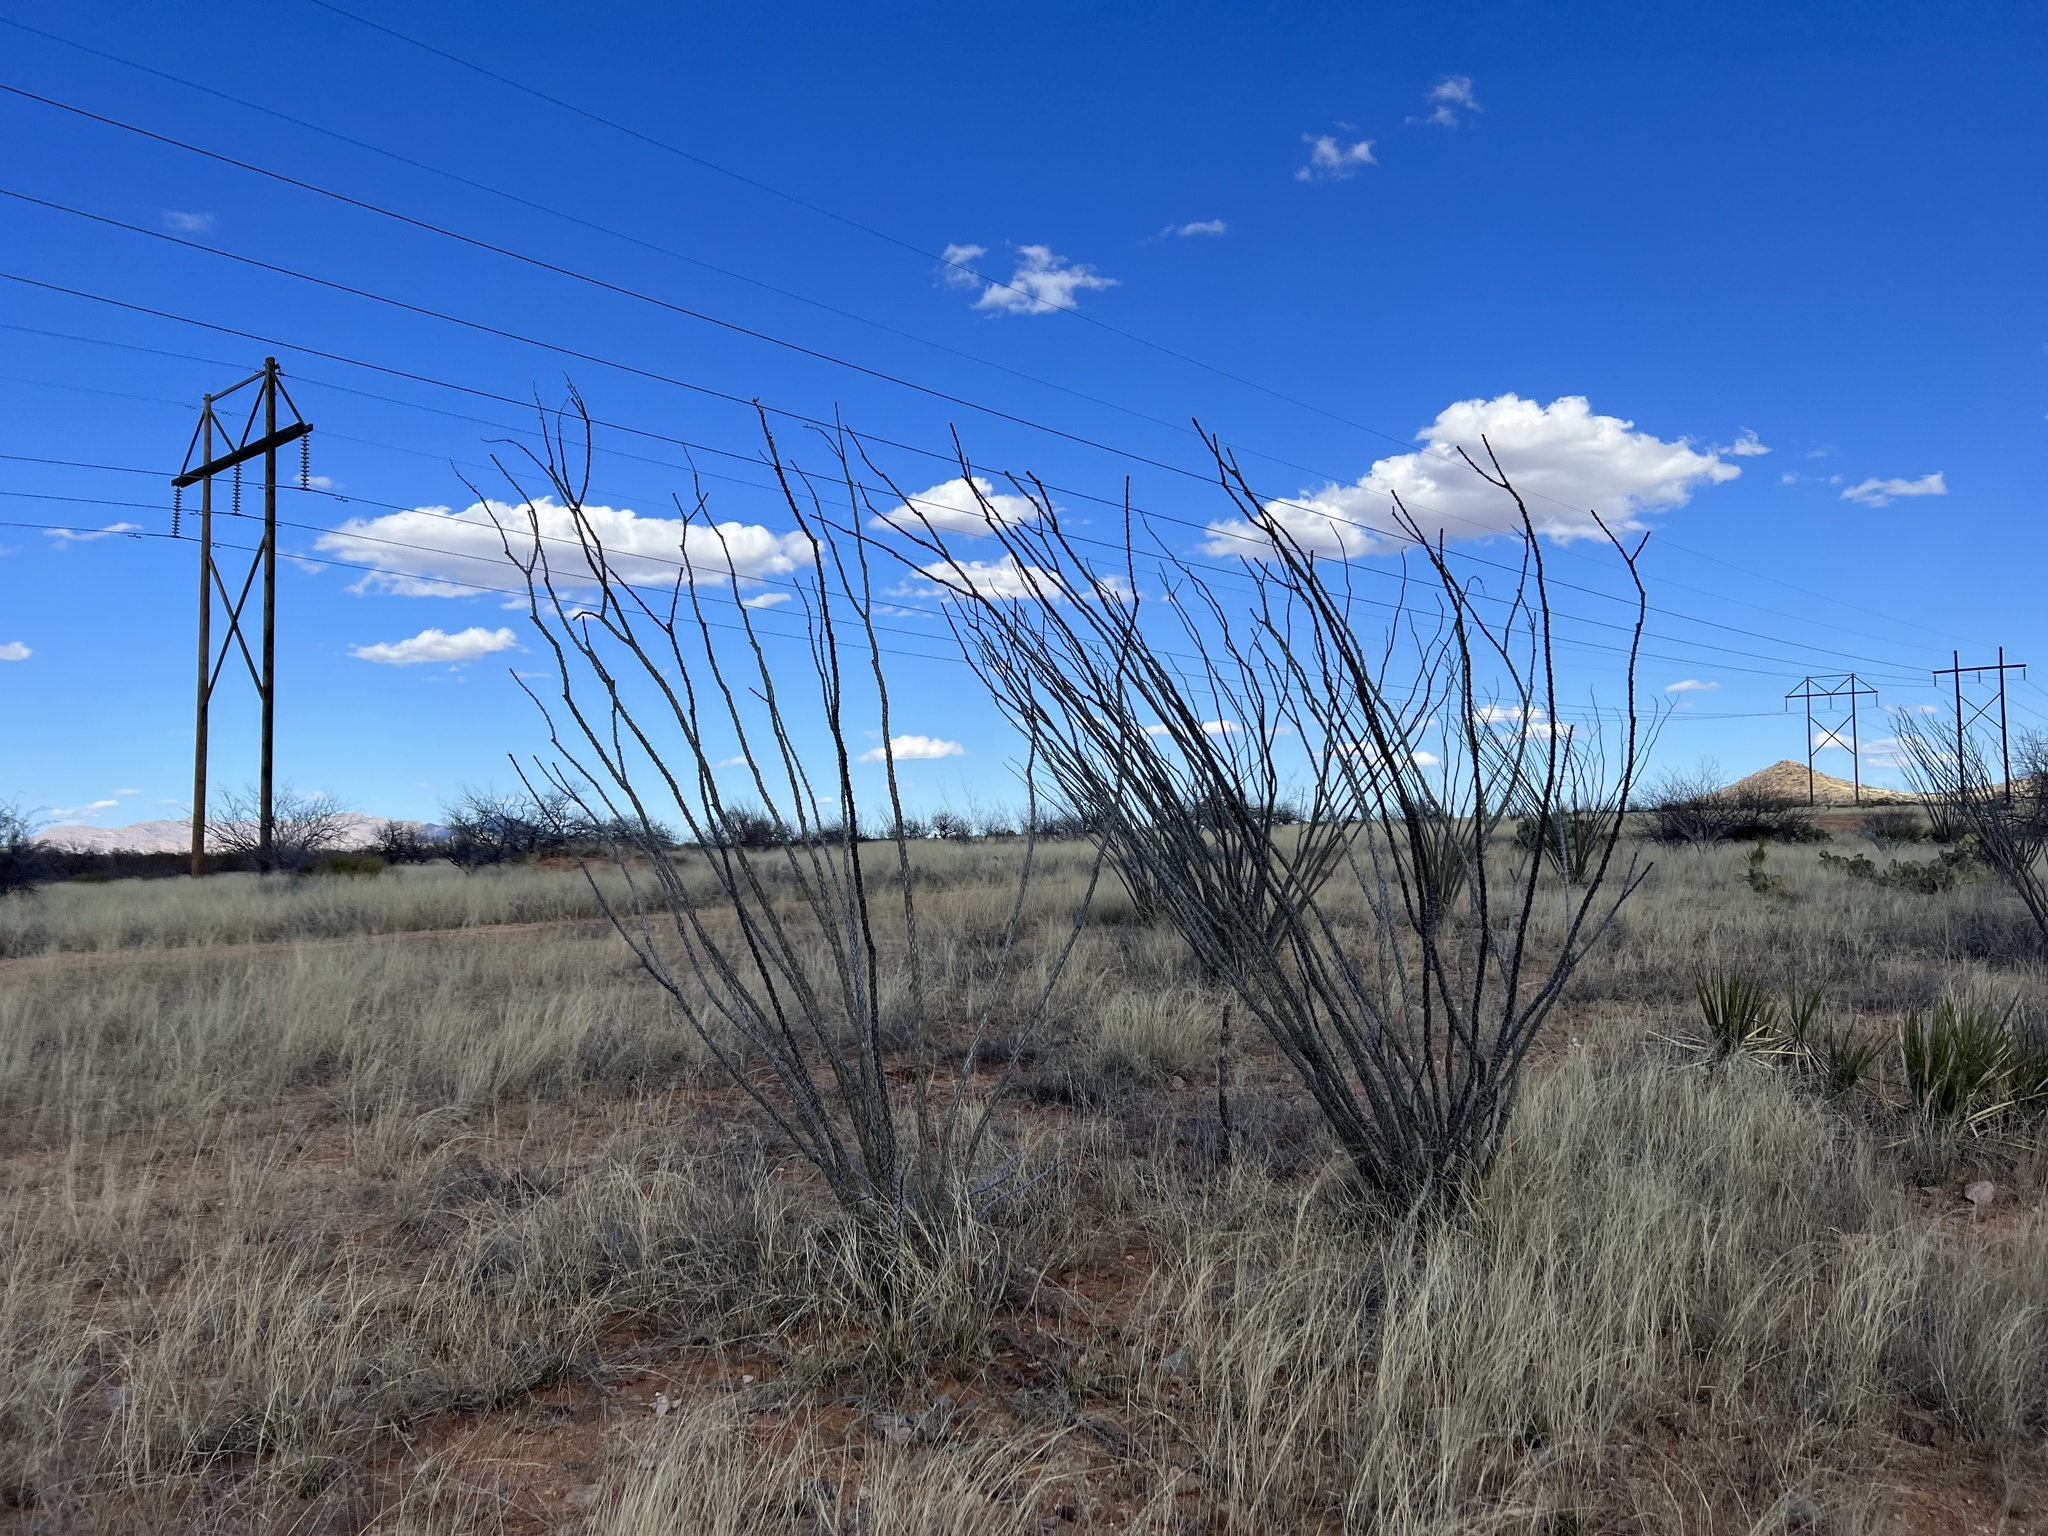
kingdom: Plantae
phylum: Tracheophyta
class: Magnoliopsida
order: Ericales
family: Fouquieriaceae
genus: Fouquieria
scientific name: Fouquieria splendens
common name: Vine-cactus
